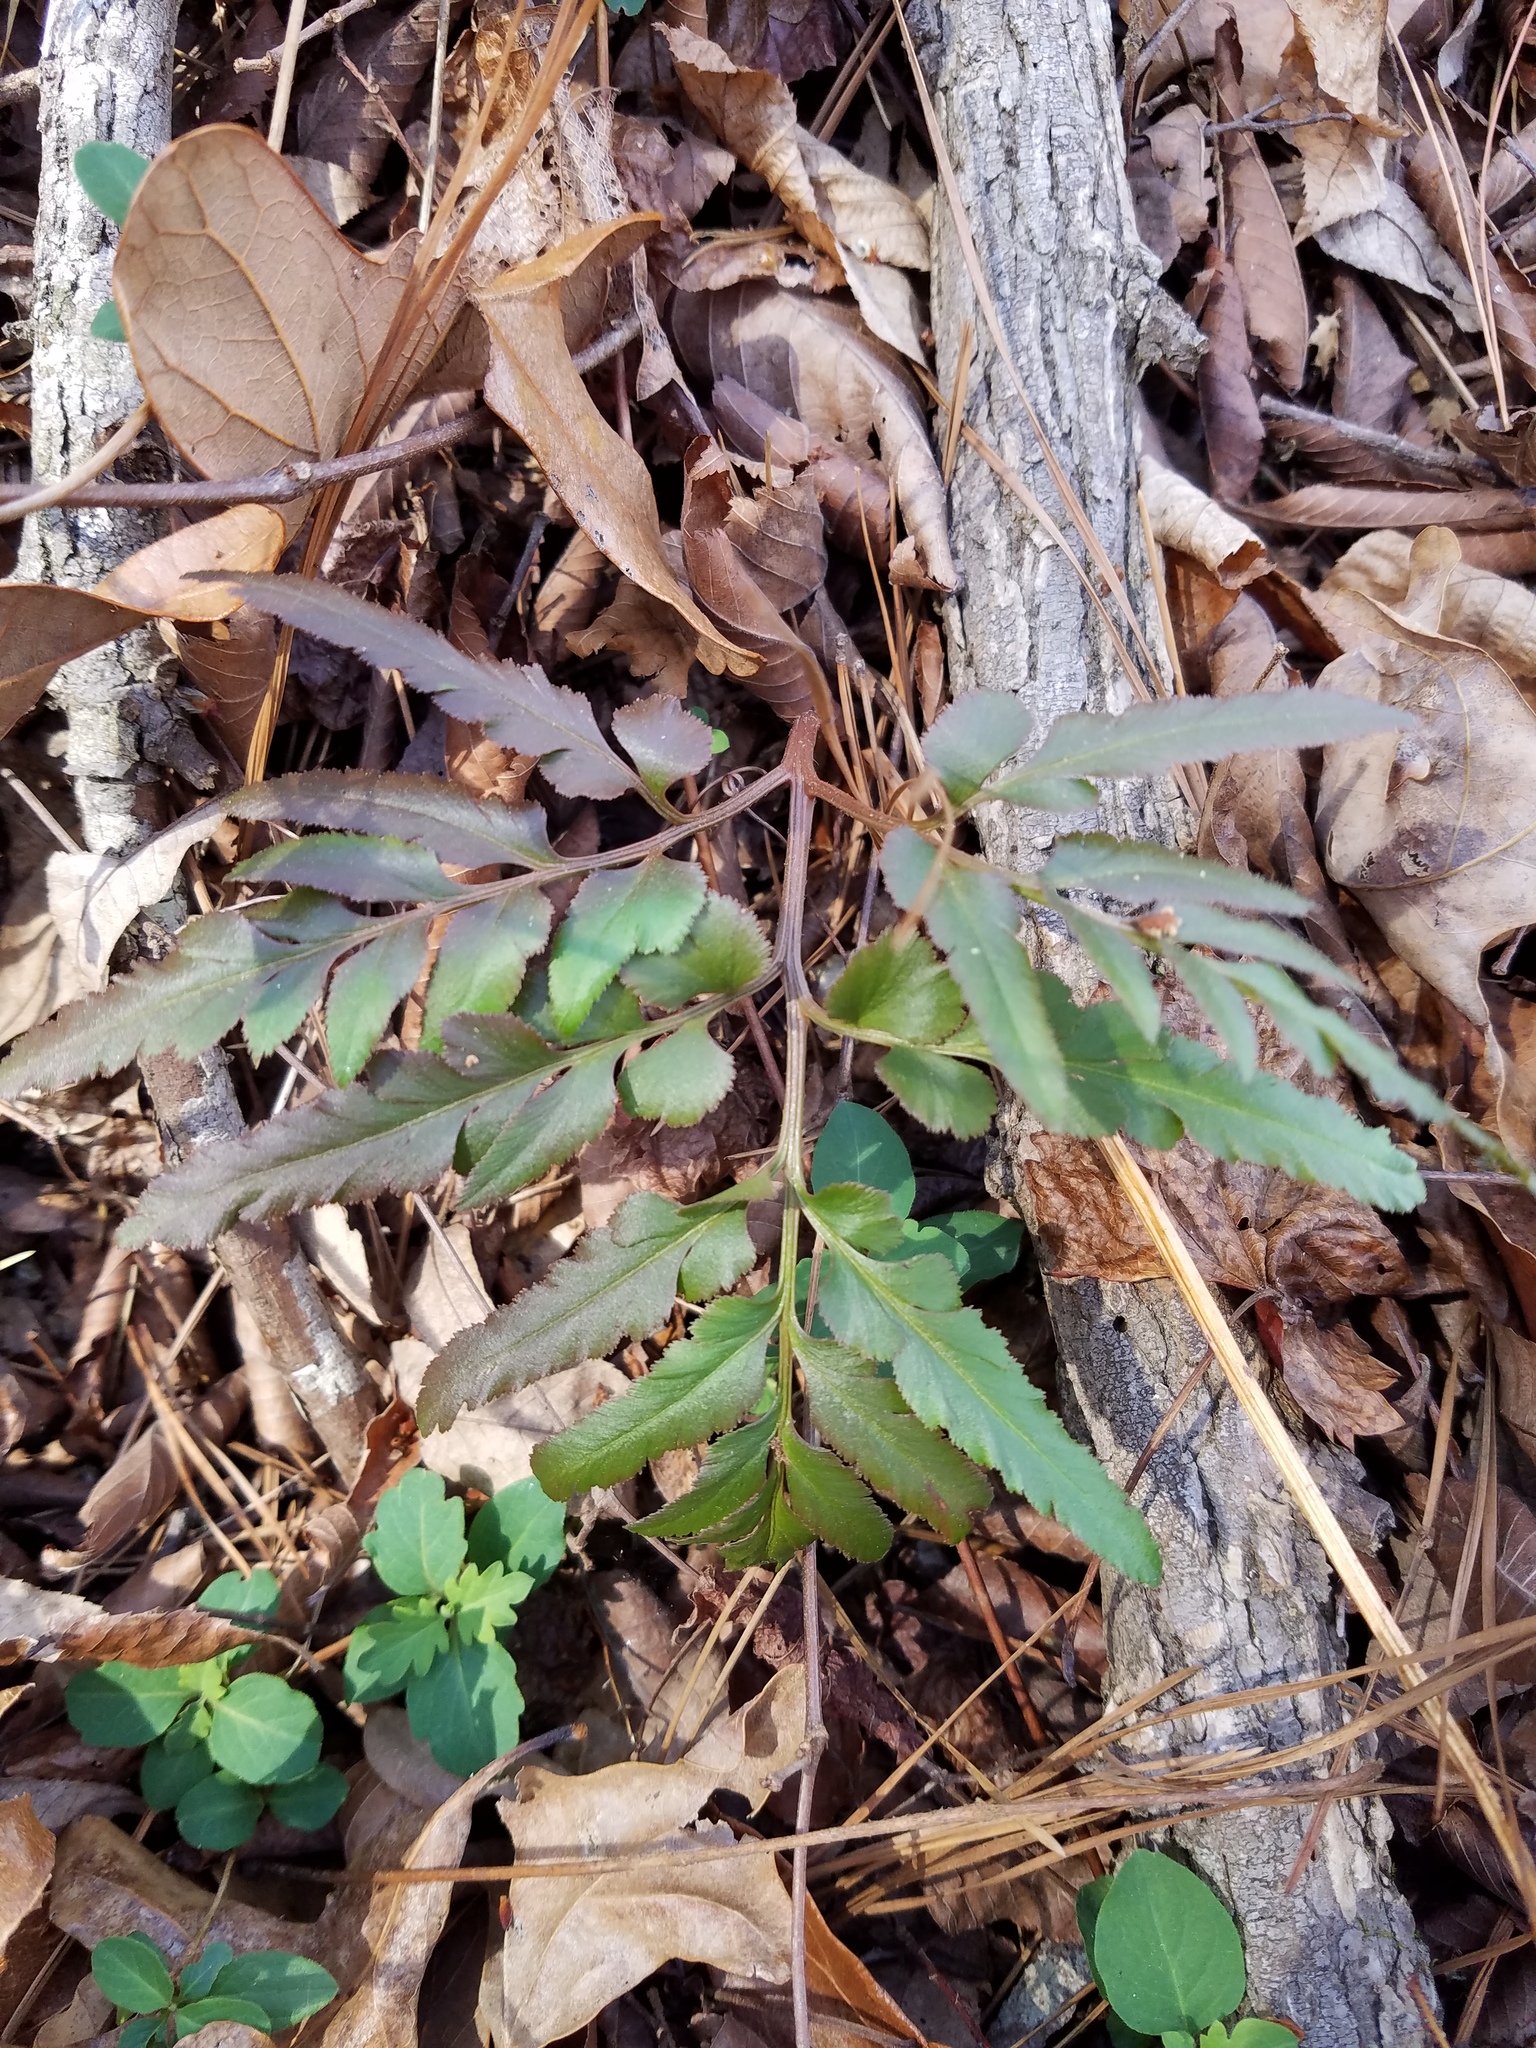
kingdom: Plantae
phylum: Tracheophyta
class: Polypodiopsida
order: Ophioglossales
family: Ophioglossaceae
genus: Sceptridium
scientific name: Sceptridium dissectum
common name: Cut-leaved grapefern
